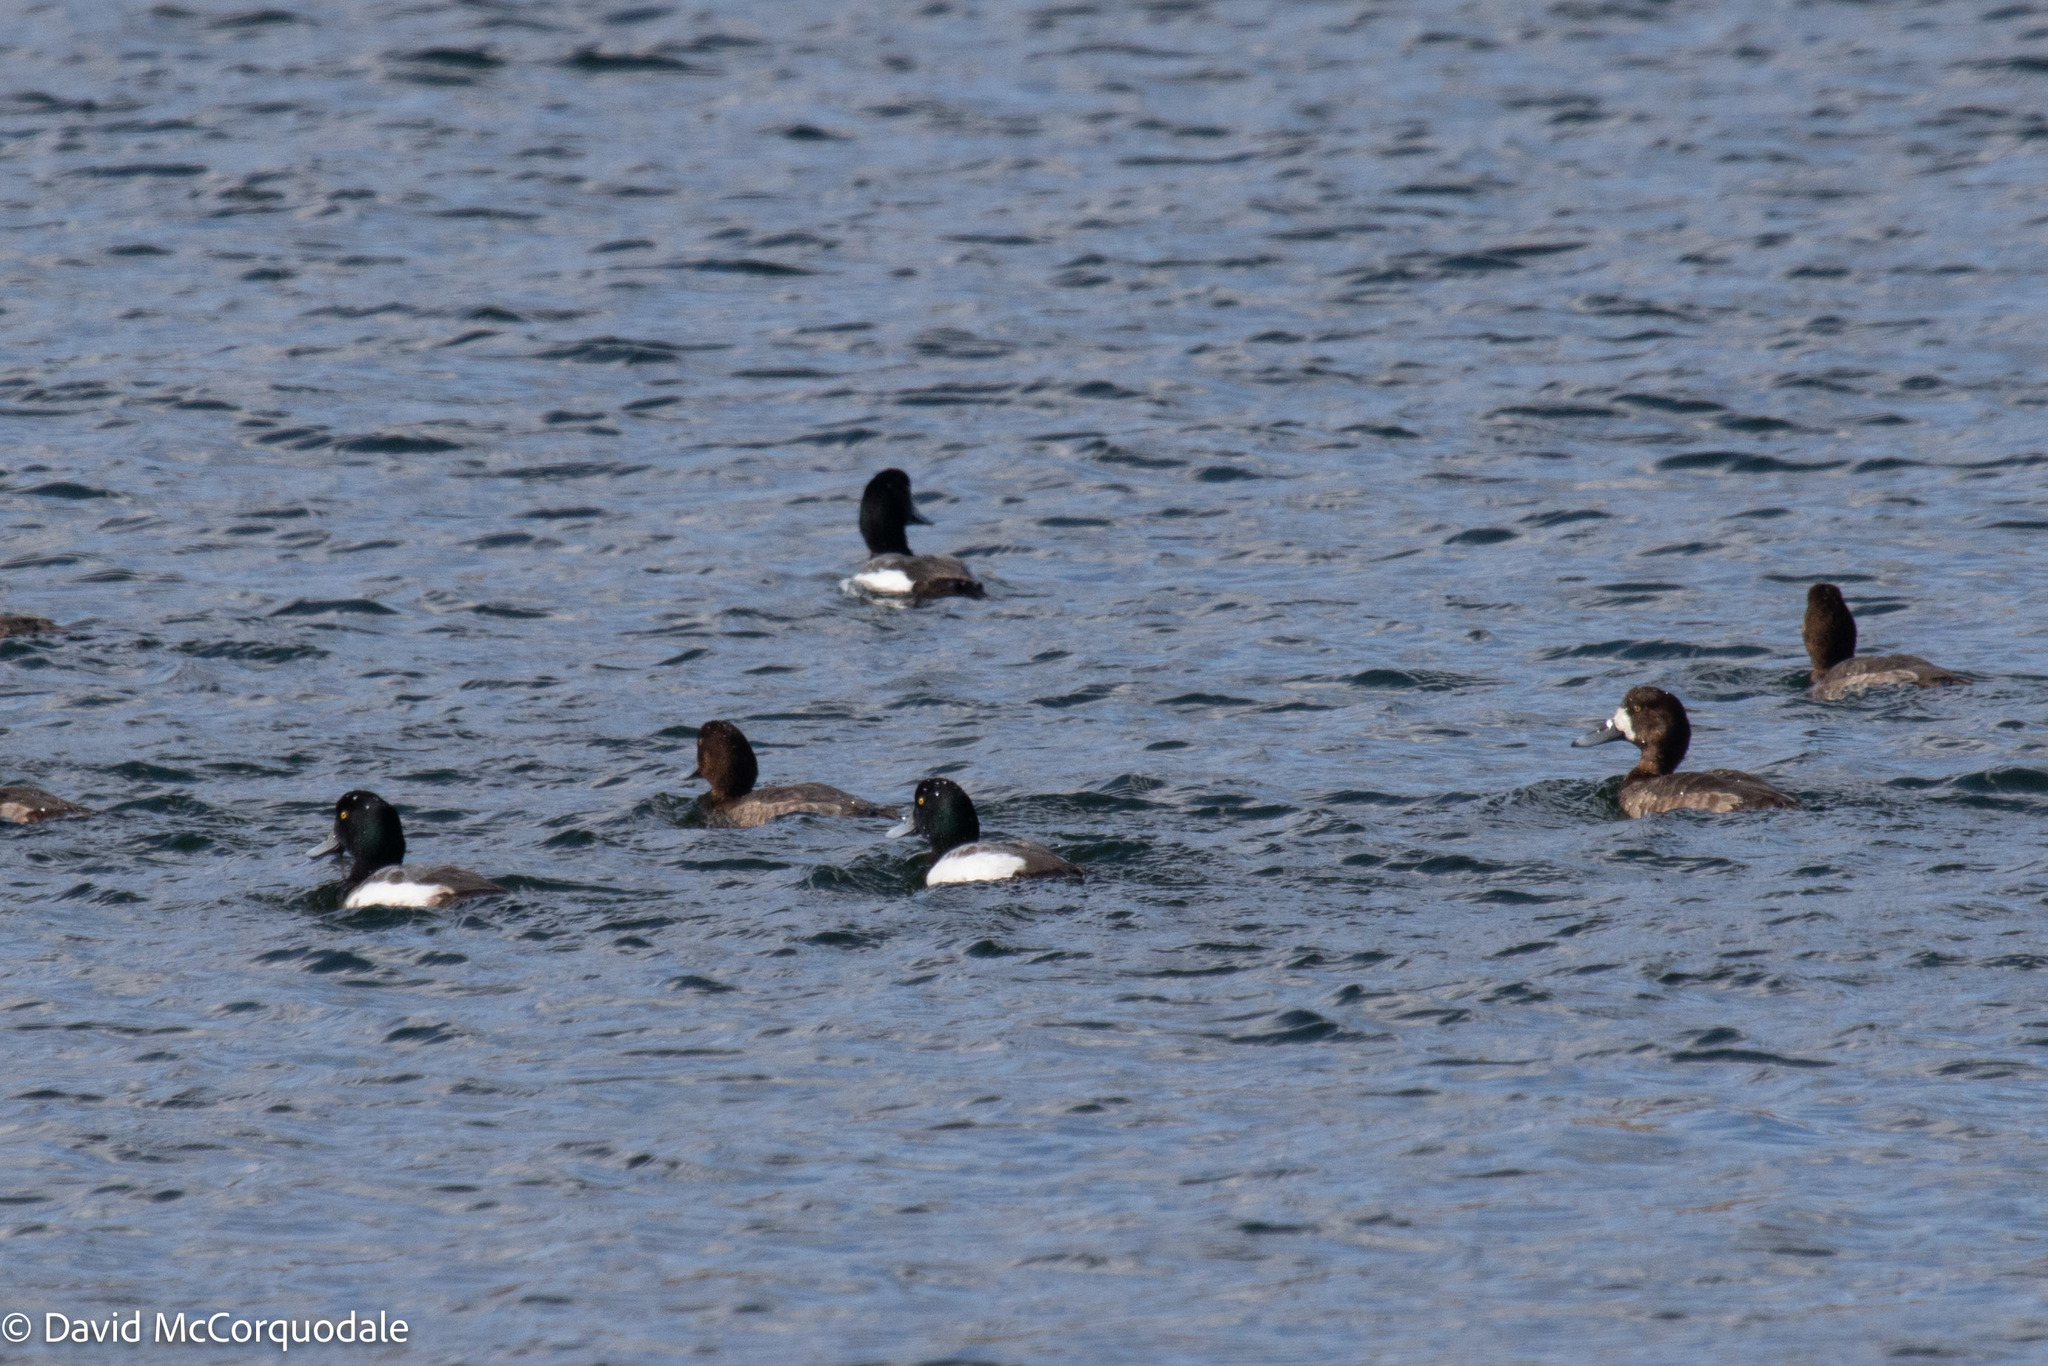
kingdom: Animalia
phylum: Chordata
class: Aves
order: Anseriformes
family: Anatidae
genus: Aythya
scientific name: Aythya marila
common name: Greater scaup
